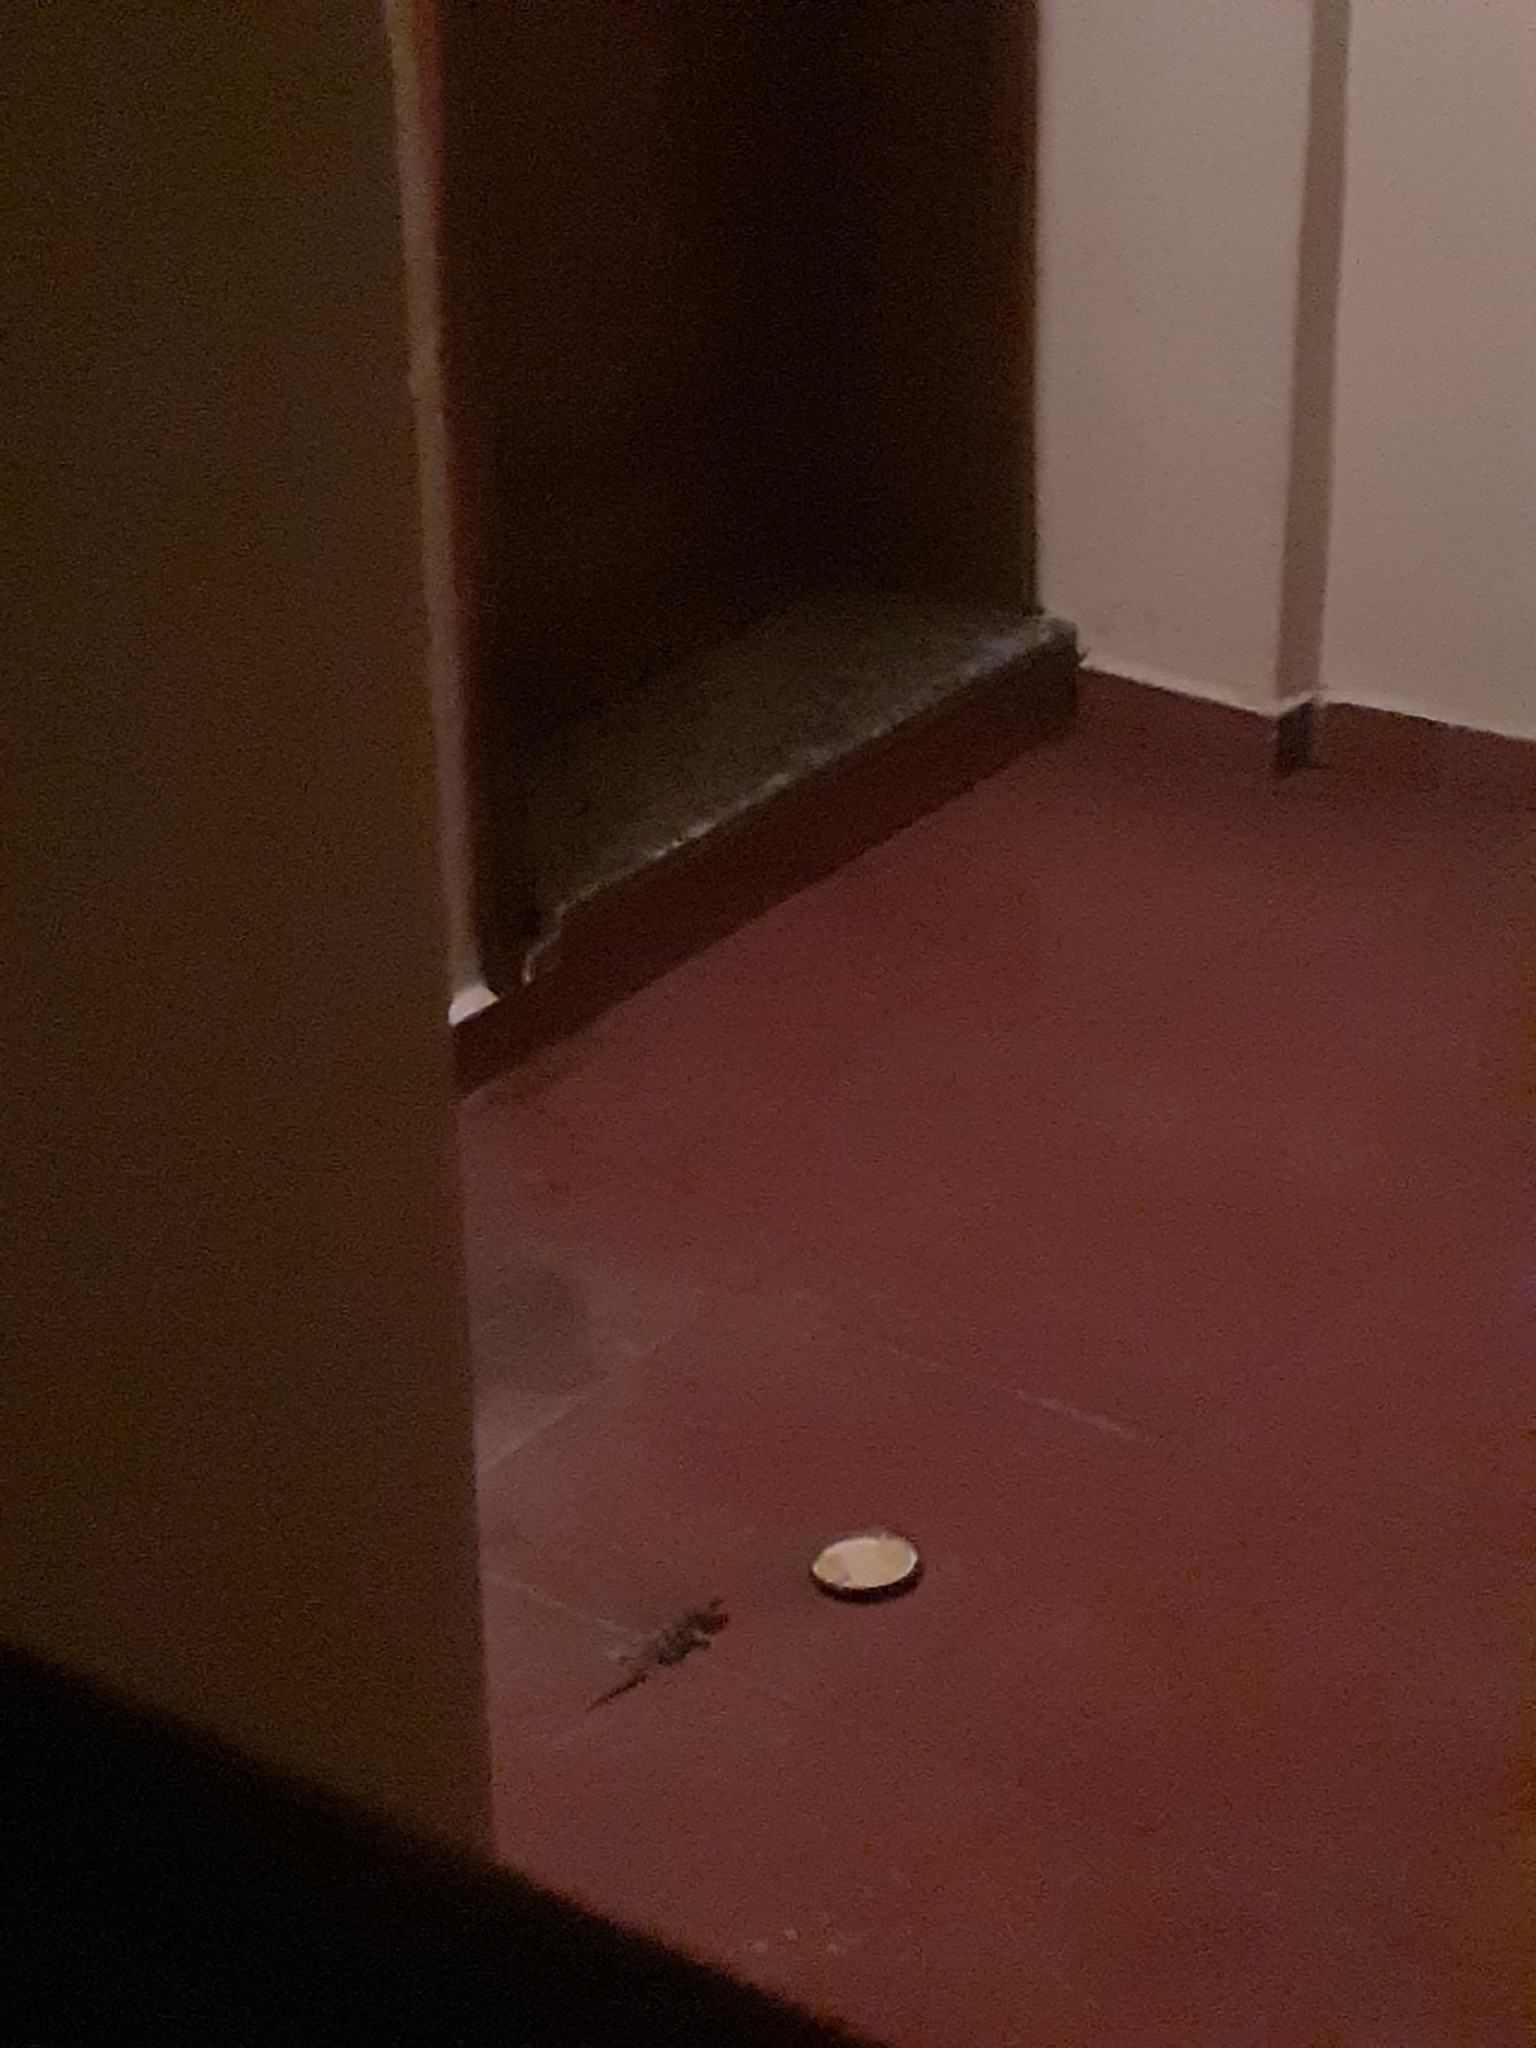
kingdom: Animalia
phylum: Chordata
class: Squamata
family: Phyllodactylidae
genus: Tarentola
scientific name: Tarentola delalandii
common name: Tenerife wall gecko
